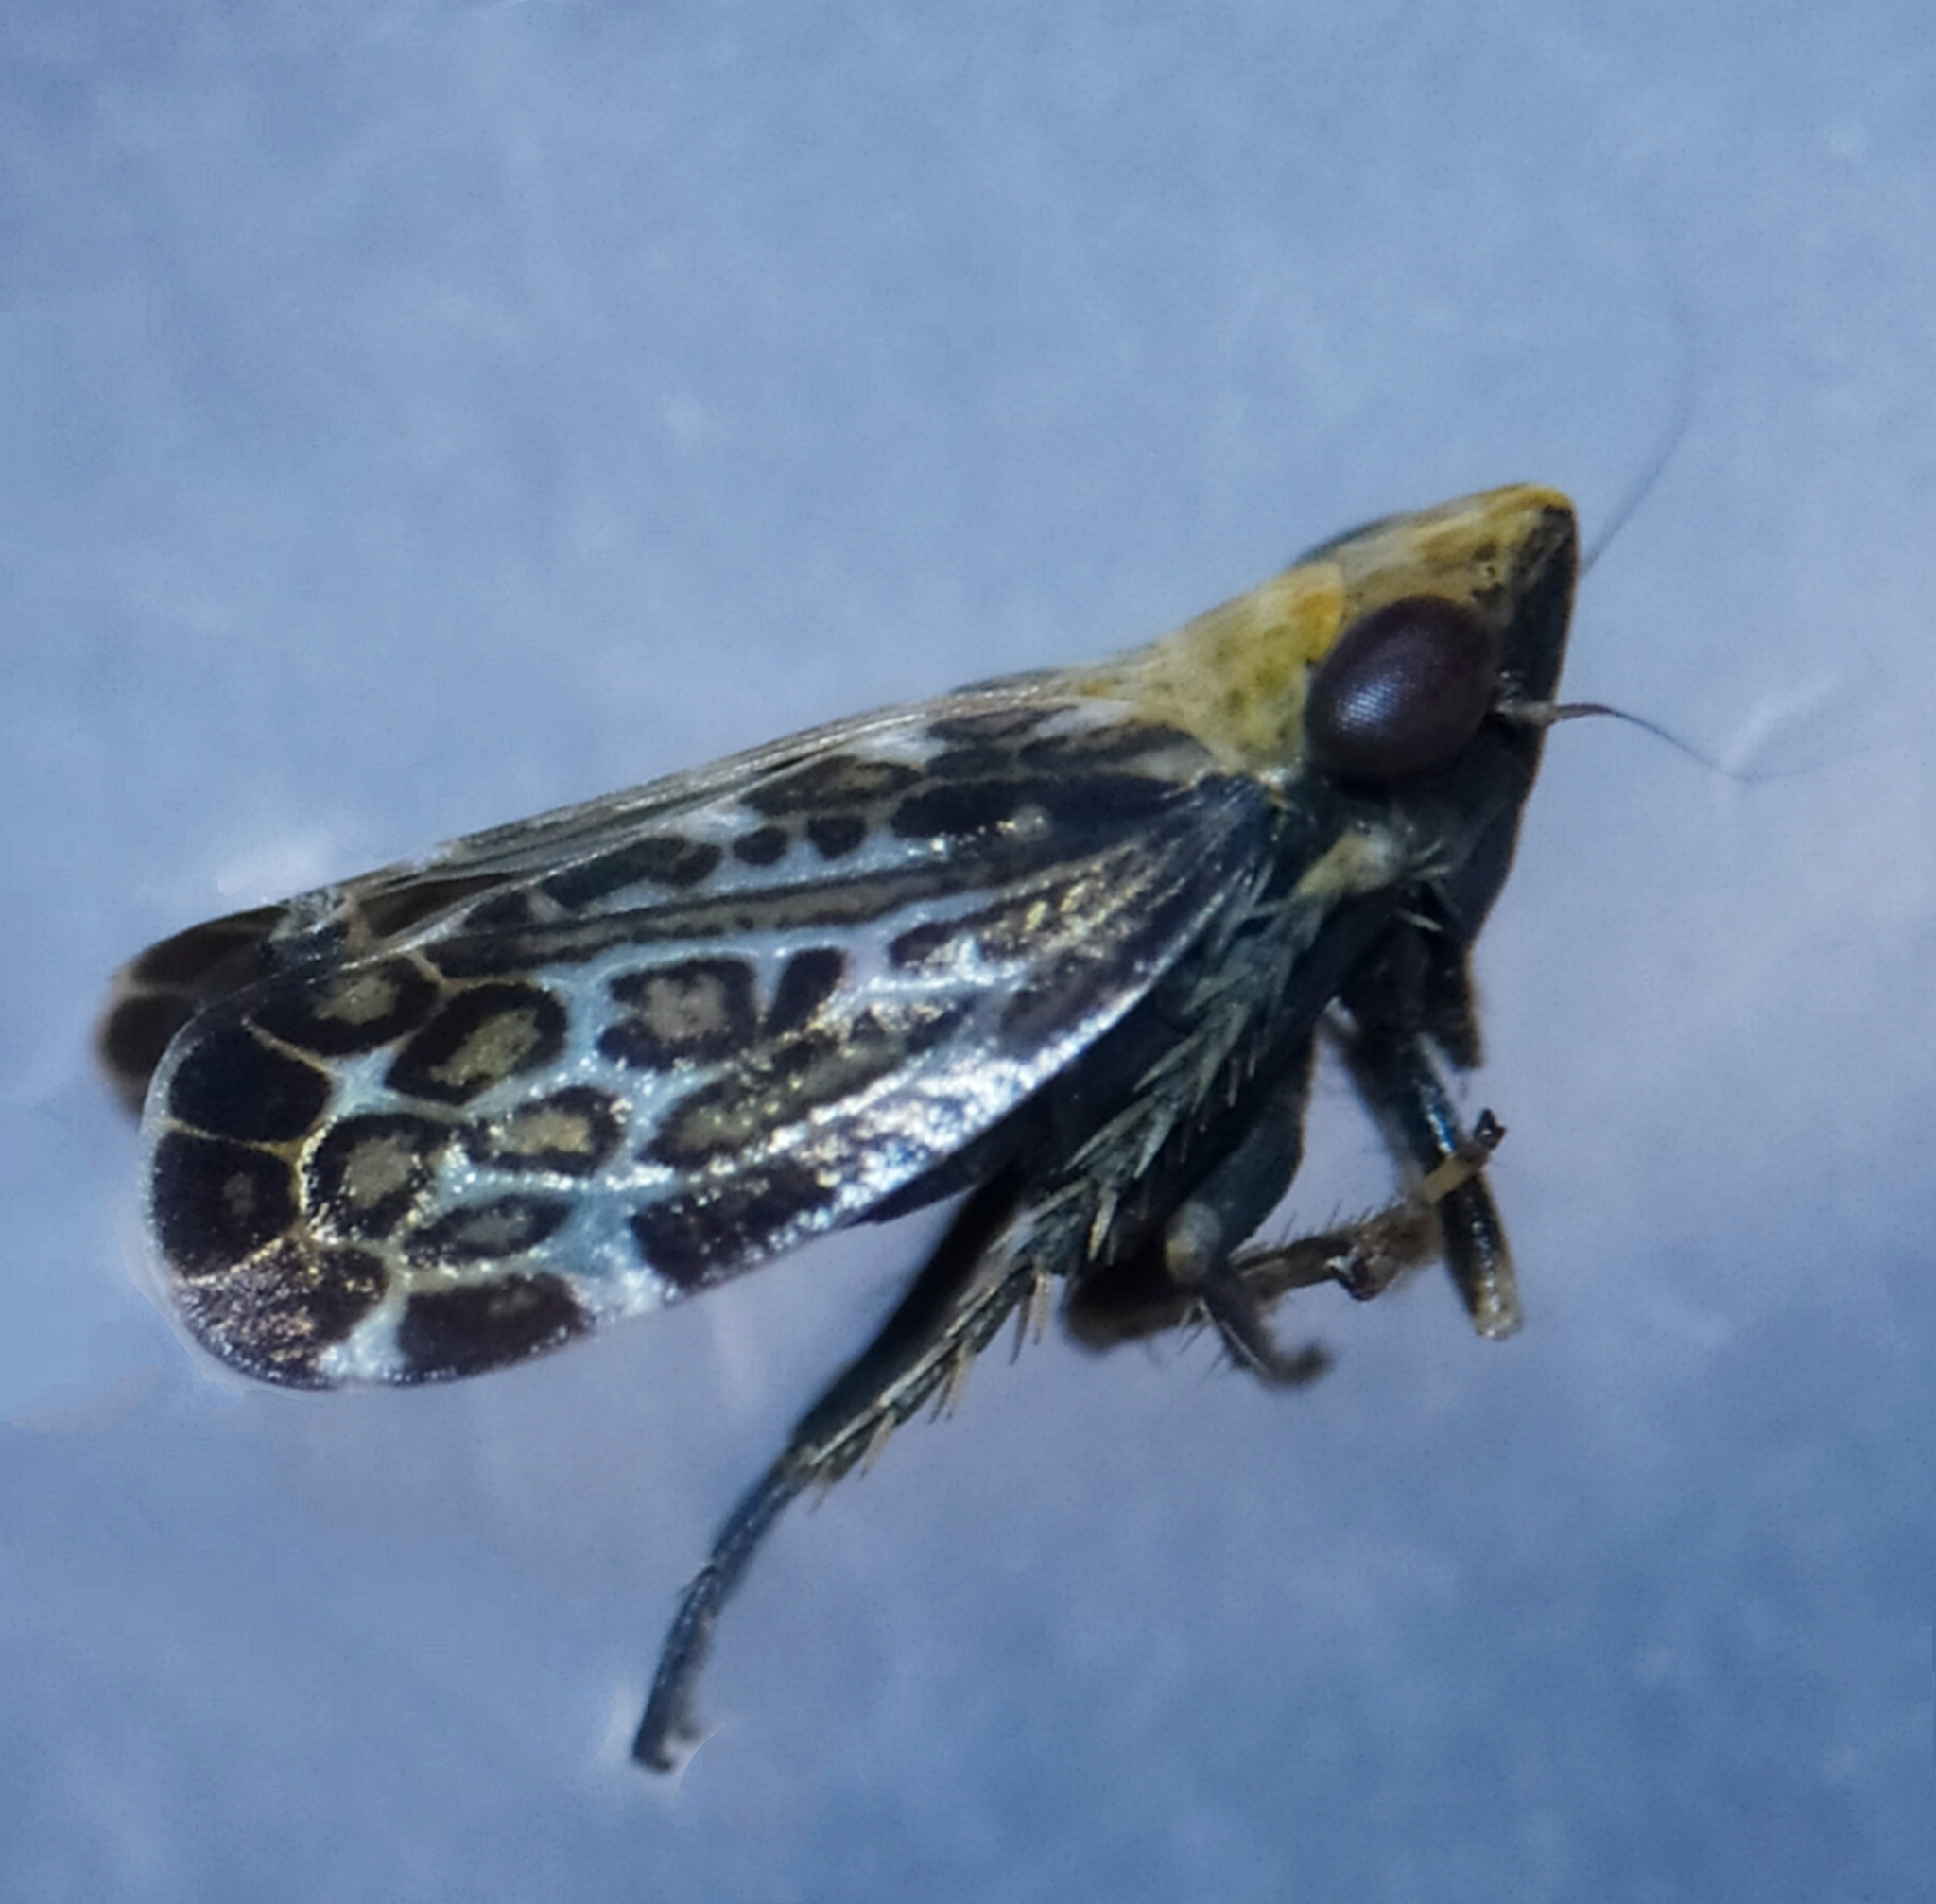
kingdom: Animalia
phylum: Arthropoda
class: Insecta
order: Hemiptera
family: Cicadellidae
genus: Errastunus
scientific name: Errastunus ocellaris
